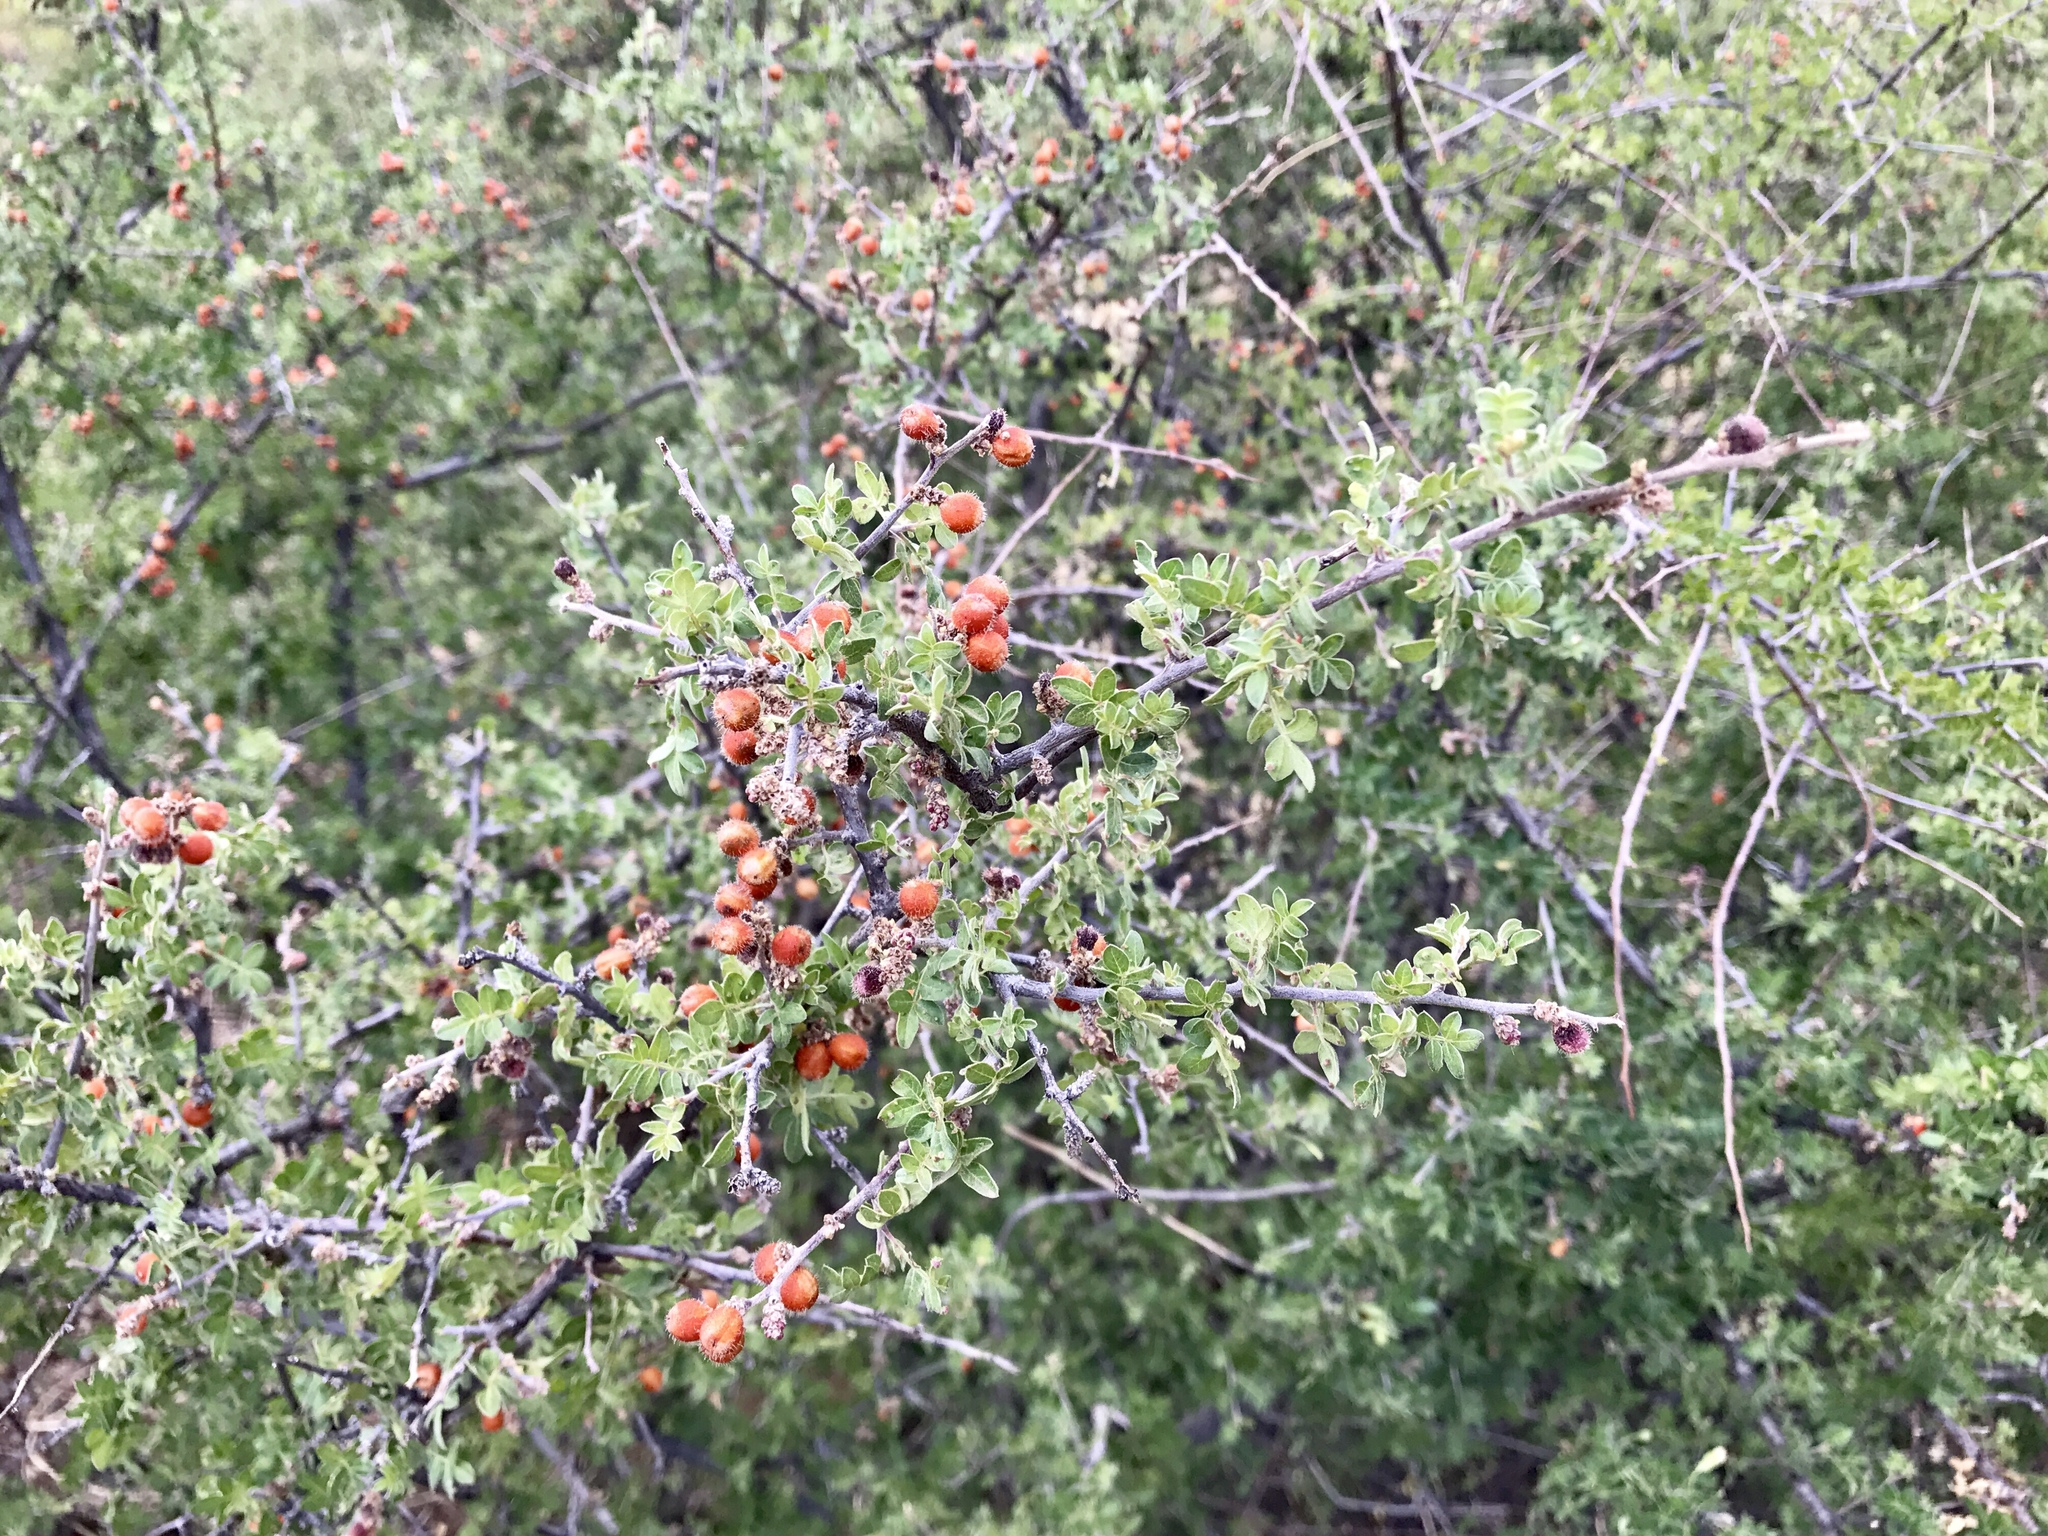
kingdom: Plantae
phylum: Tracheophyta
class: Magnoliopsida
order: Sapindales
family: Anacardiaceae
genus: Rhus
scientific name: Rhus microphylla
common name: Desert sumac
